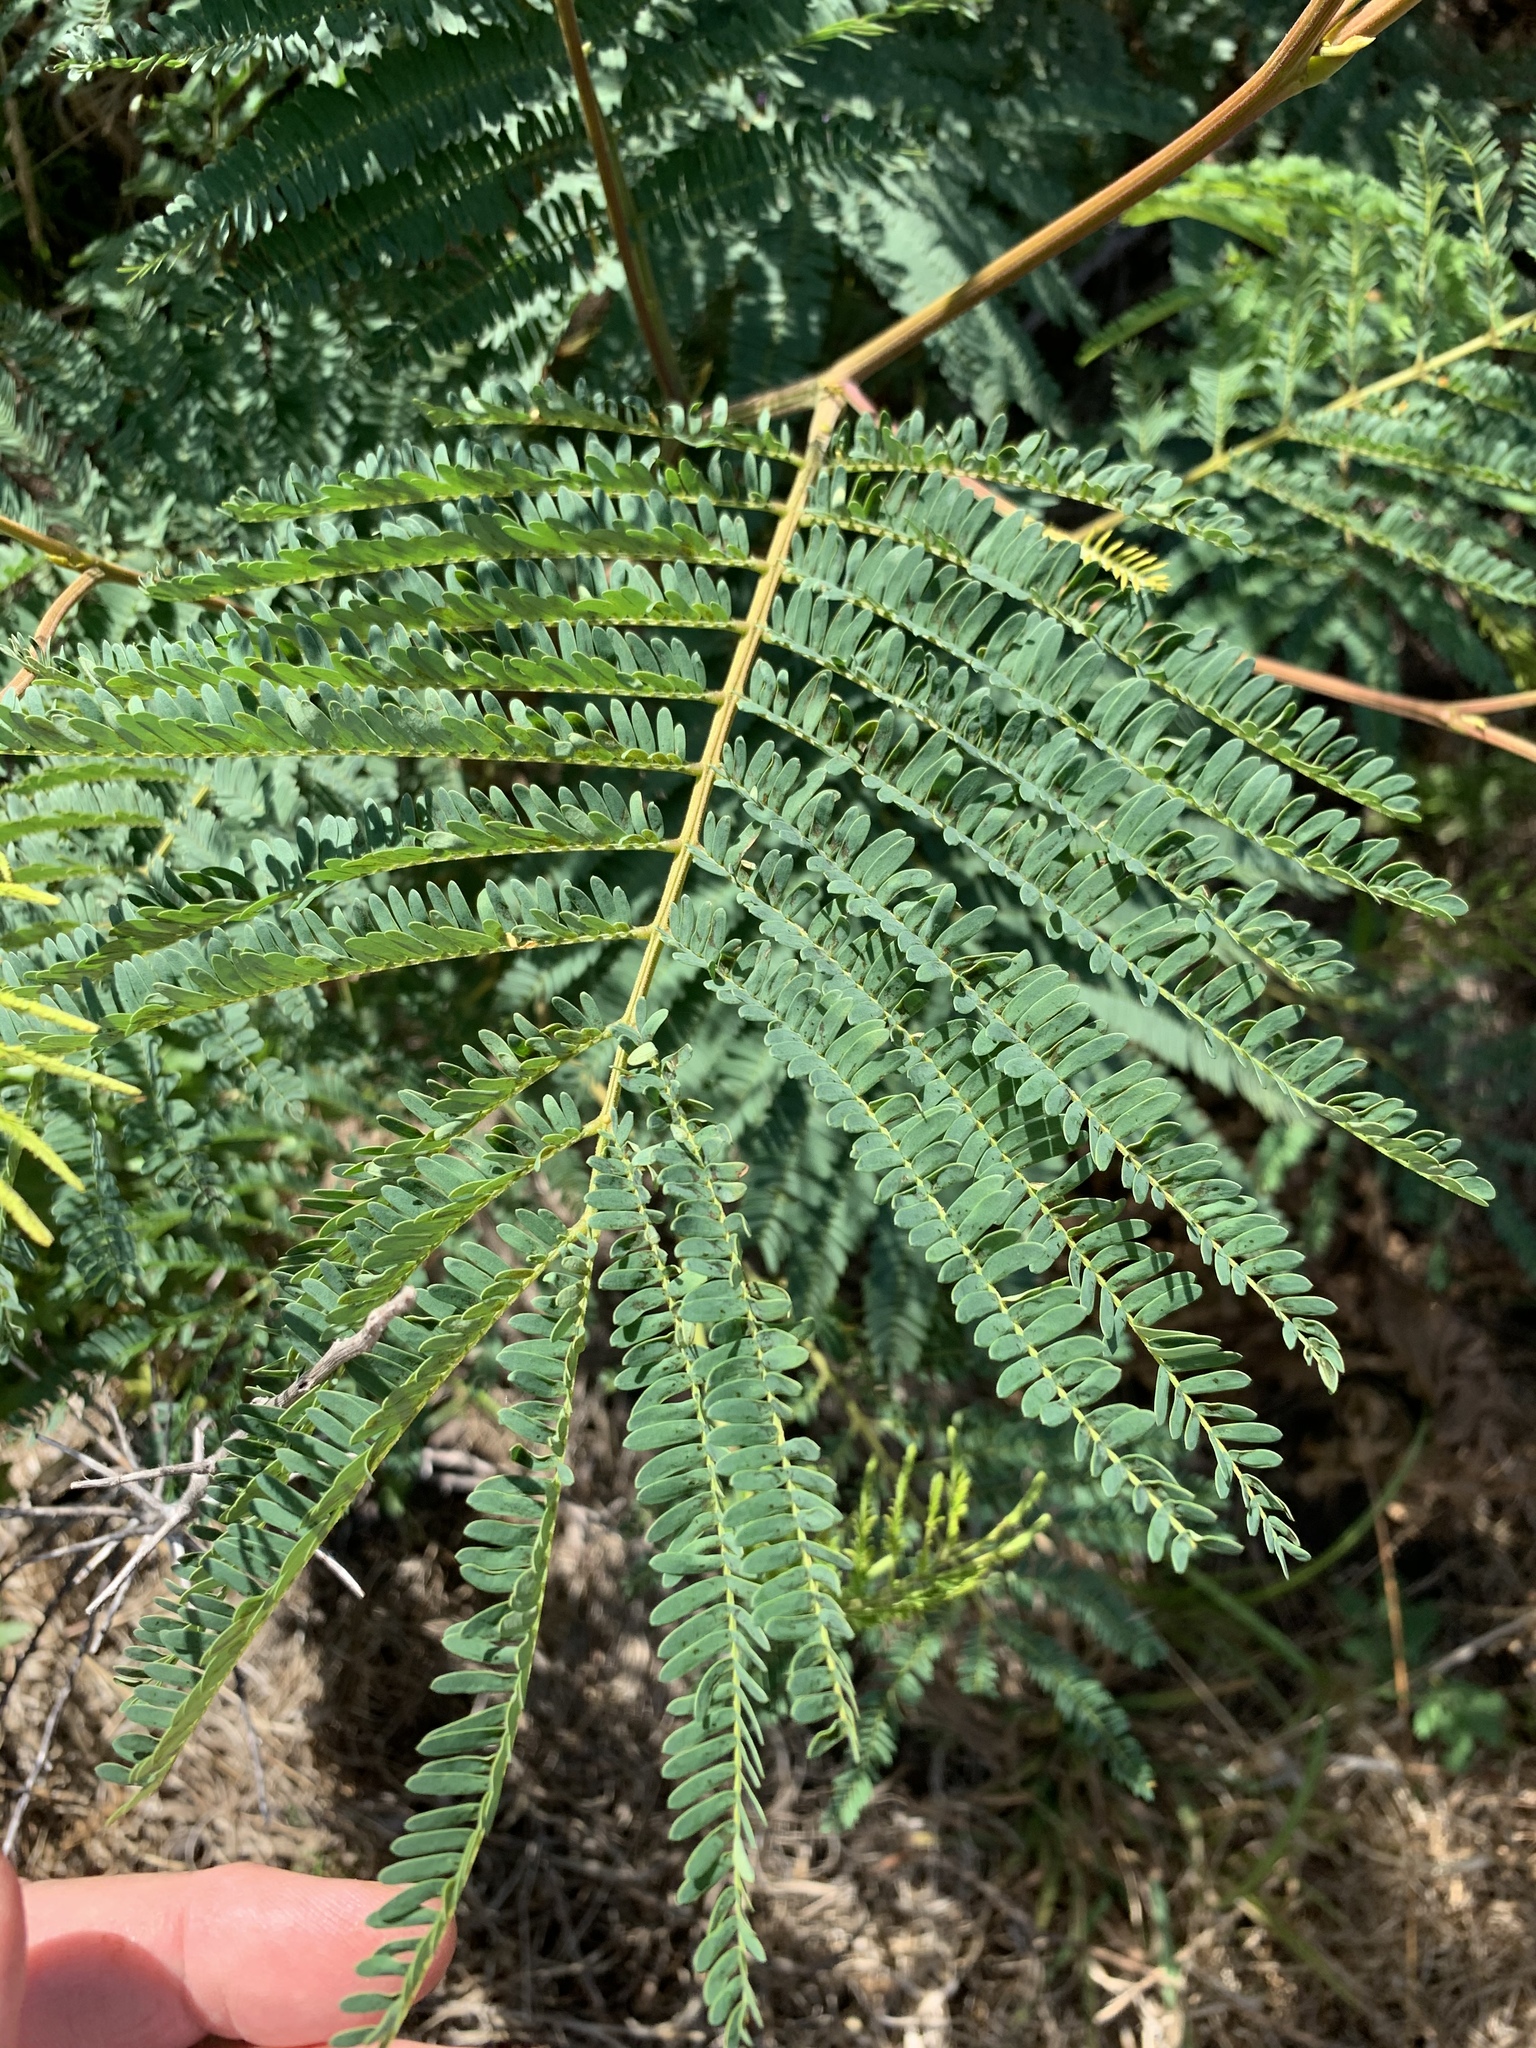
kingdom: Plantae
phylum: Tracheophyta
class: Magnoliopsida
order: Fabales
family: Fabaceae
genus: Paraserianthes
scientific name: Paraserianthes lophantha
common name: Plume albizia
